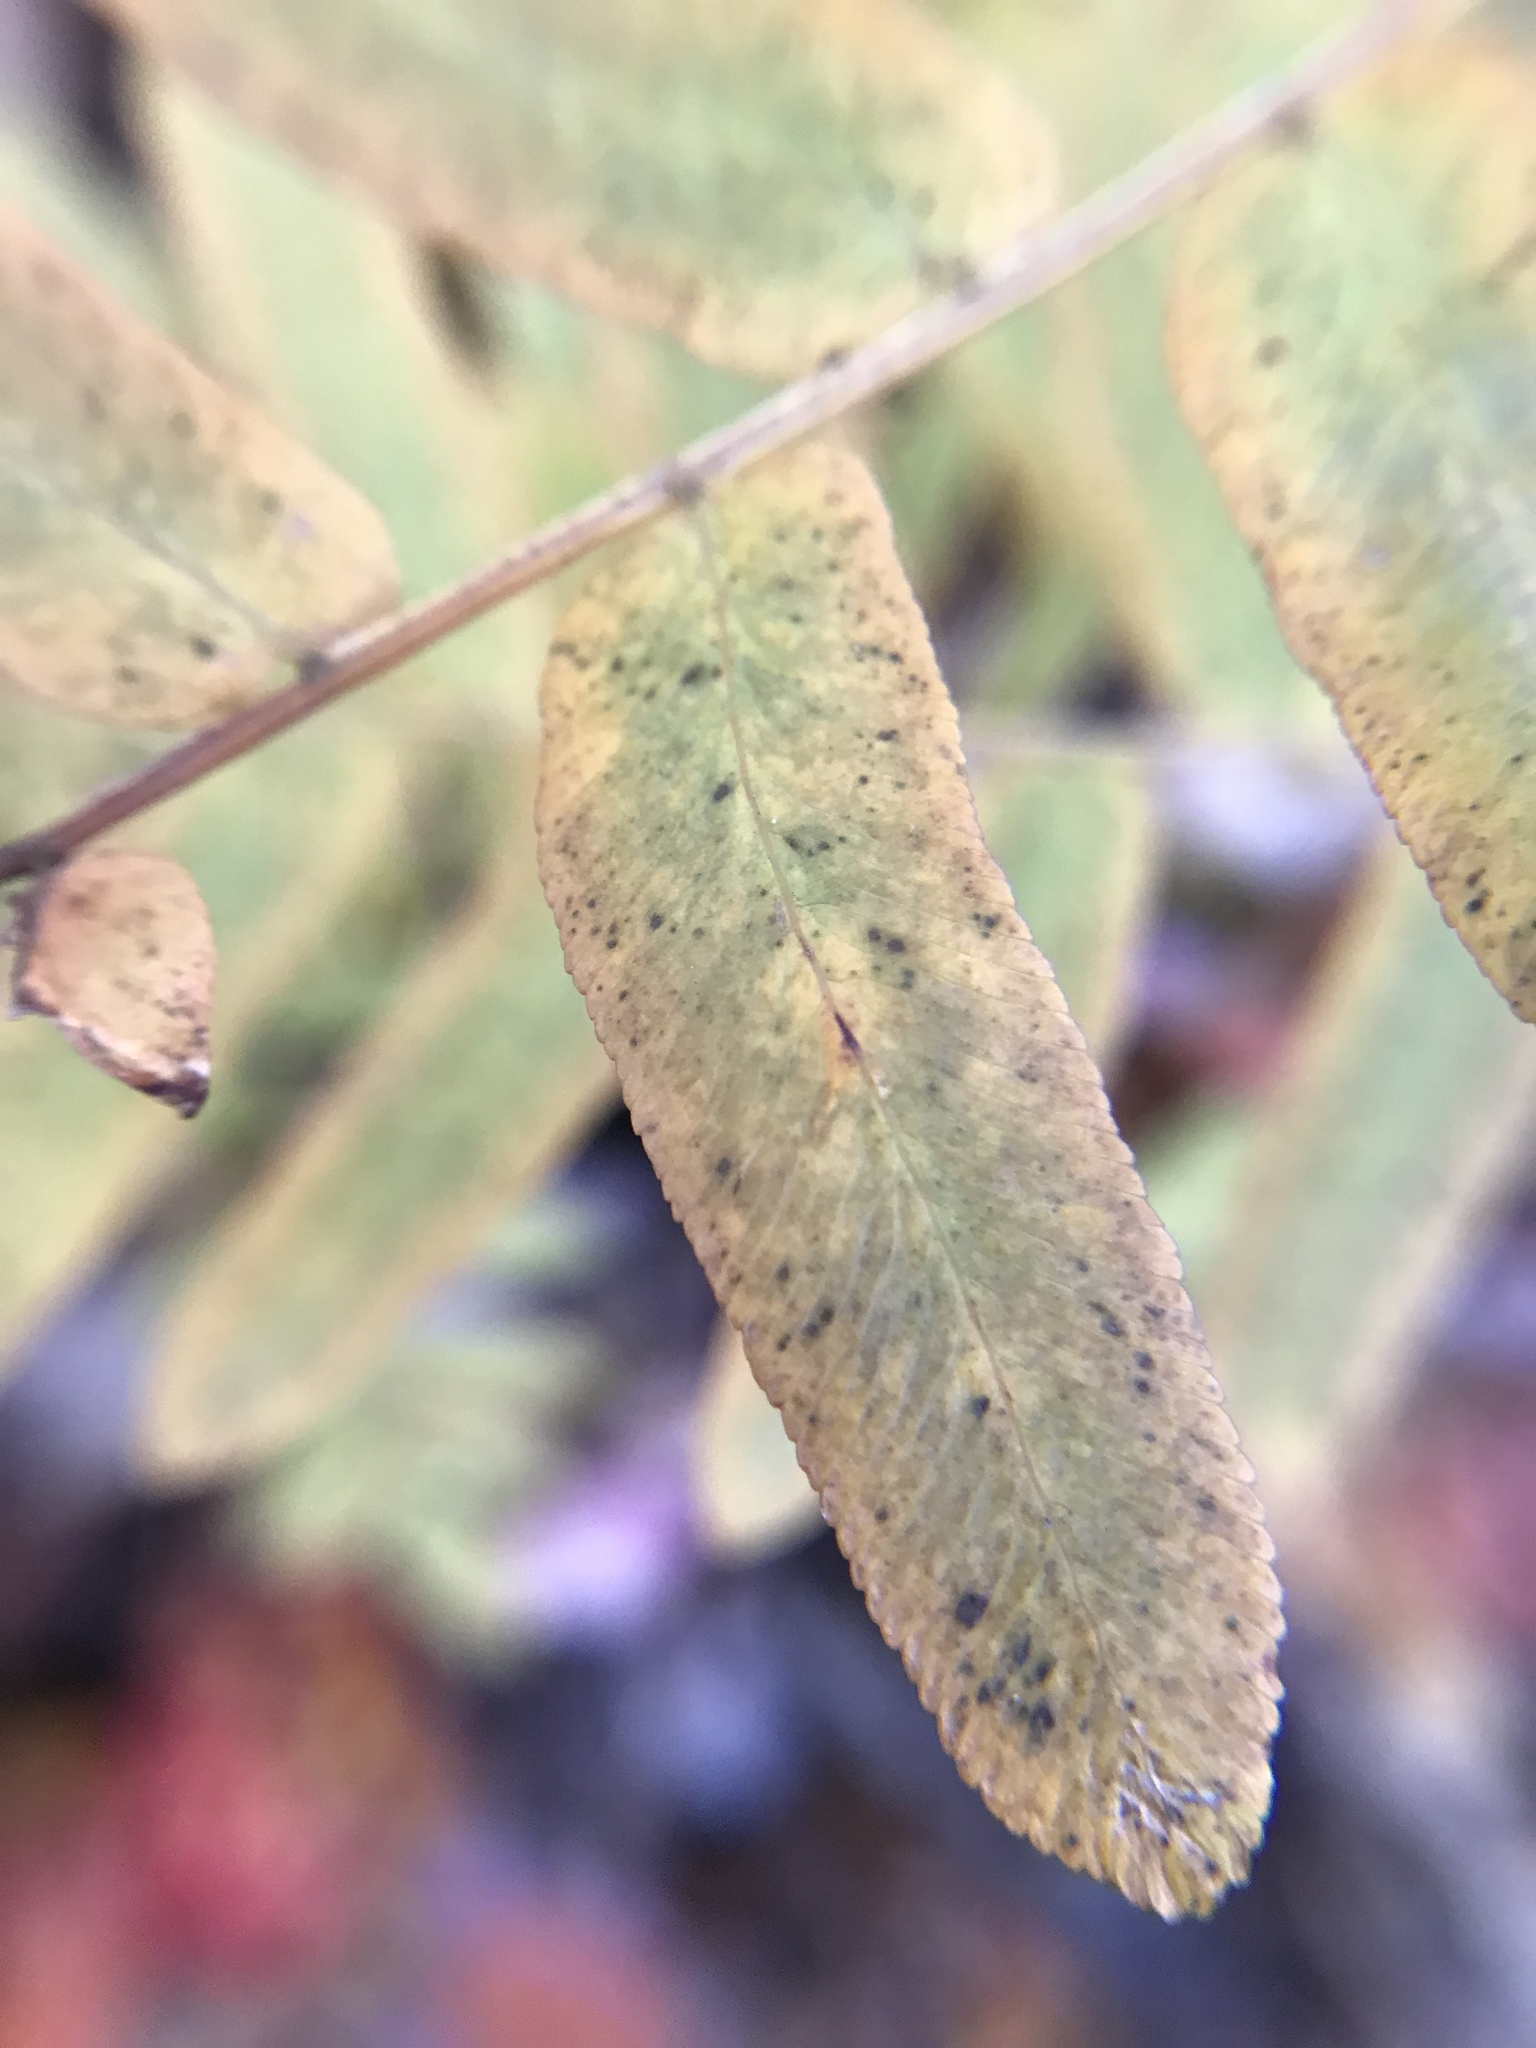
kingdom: Plantae
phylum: Tracheophyta
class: Polypodiopsida
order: Osmundales
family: Osmundaceae
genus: Osmunda
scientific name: Osmunda spectabilis
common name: American royal fern
